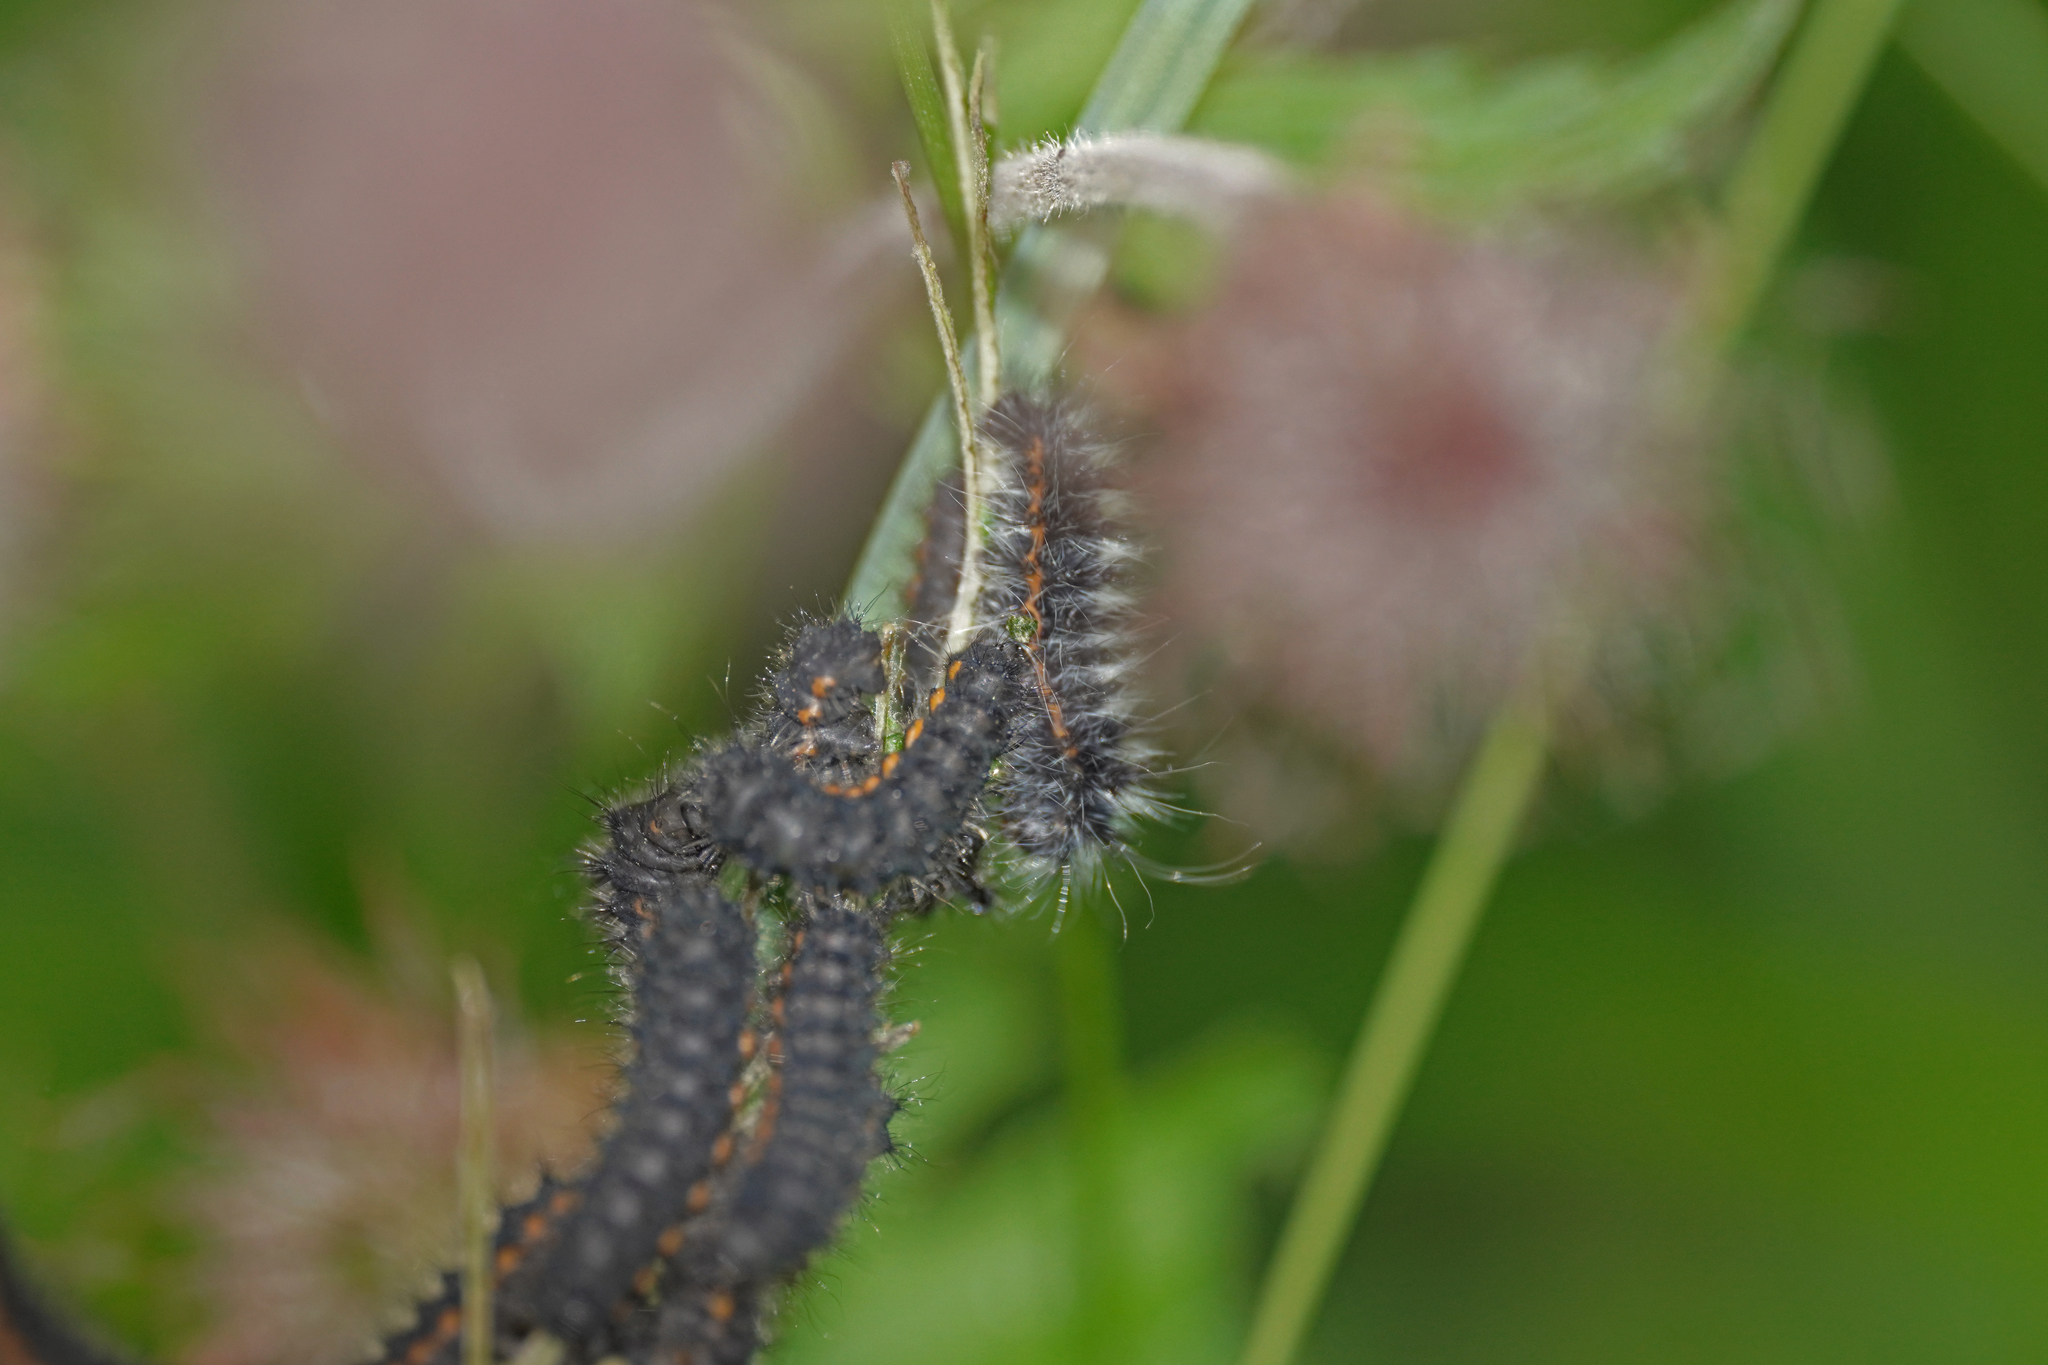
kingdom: Animalia
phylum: Arthropoda
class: Insecta
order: Lepidoptera
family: Saturniidae
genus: Saturnia
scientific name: Saturnia pavonia
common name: Emperor moth
